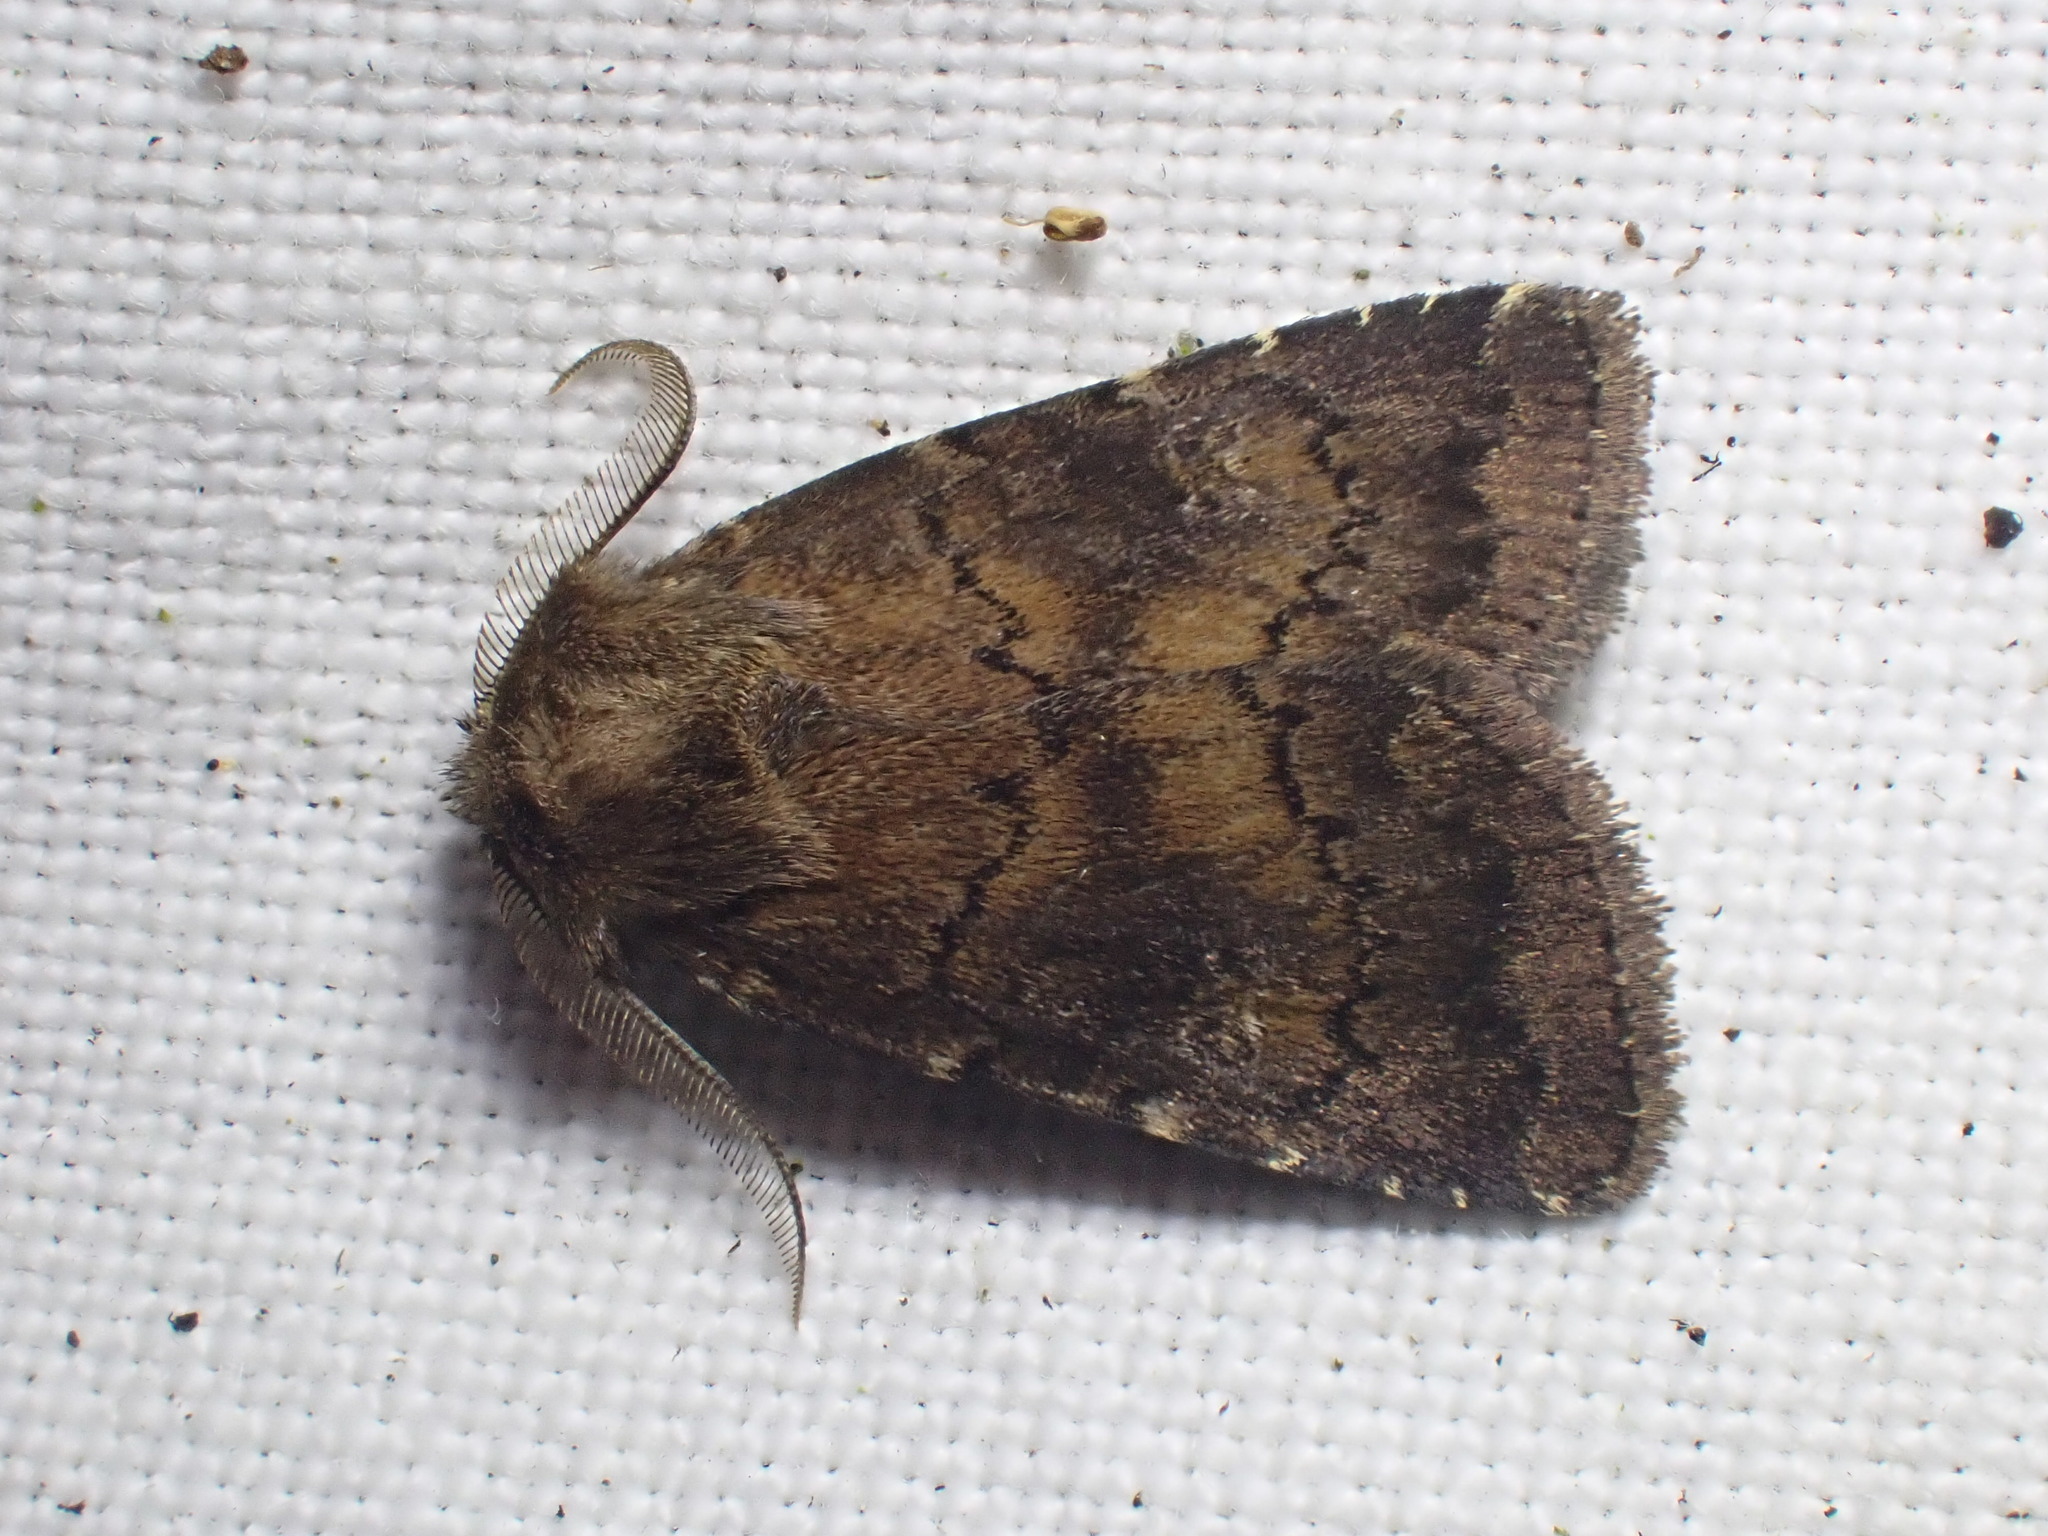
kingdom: Animalia
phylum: Arthropoda
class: Insecta
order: Lepidoptera
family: Noctuidae
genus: Charanyca
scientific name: Charanyca ferruginea
